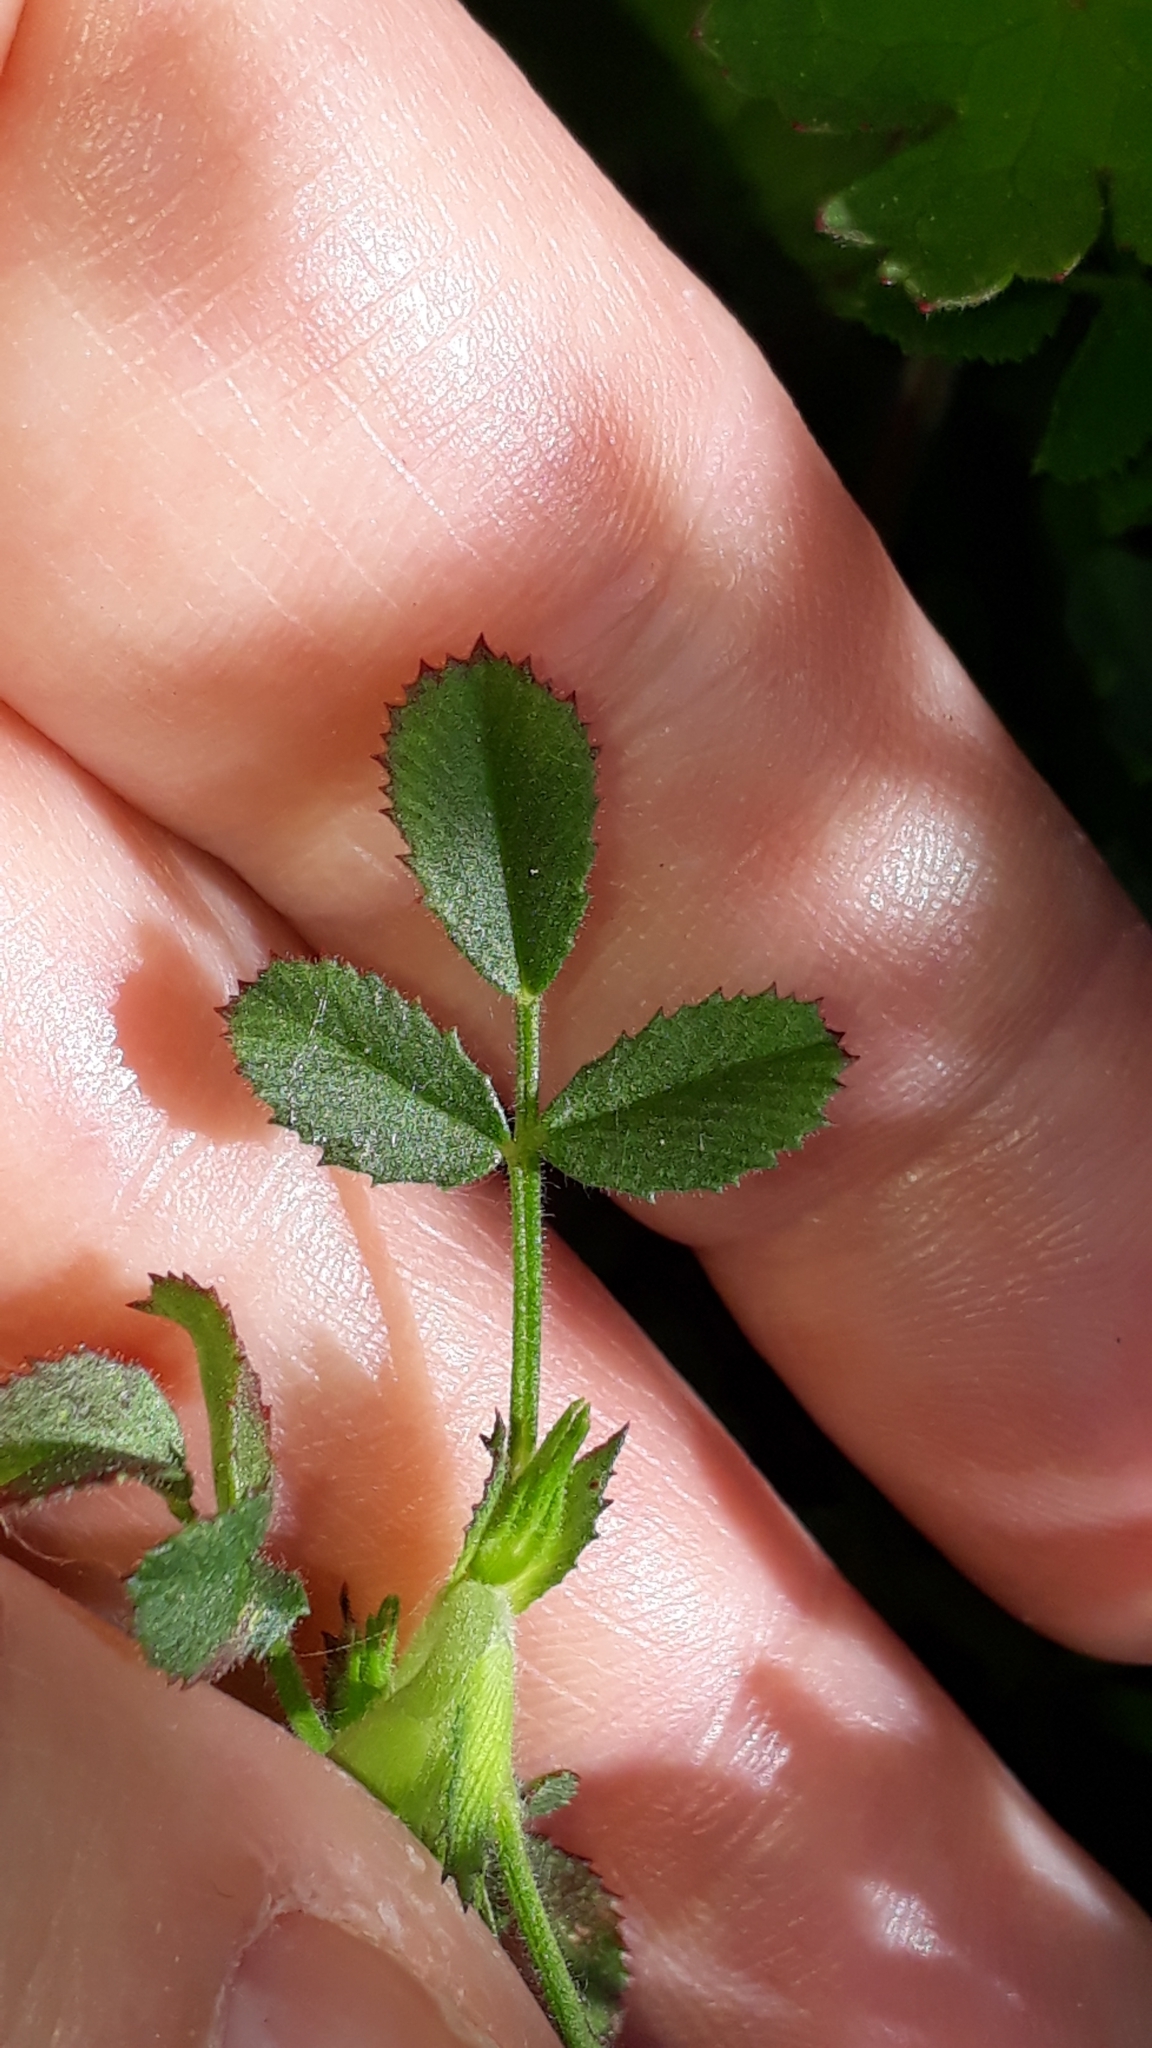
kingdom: Plantae
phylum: Tracheophyta
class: Magnoliopsida
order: Fabales
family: Fabaceae
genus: Ononis
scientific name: Ononis pusilla
